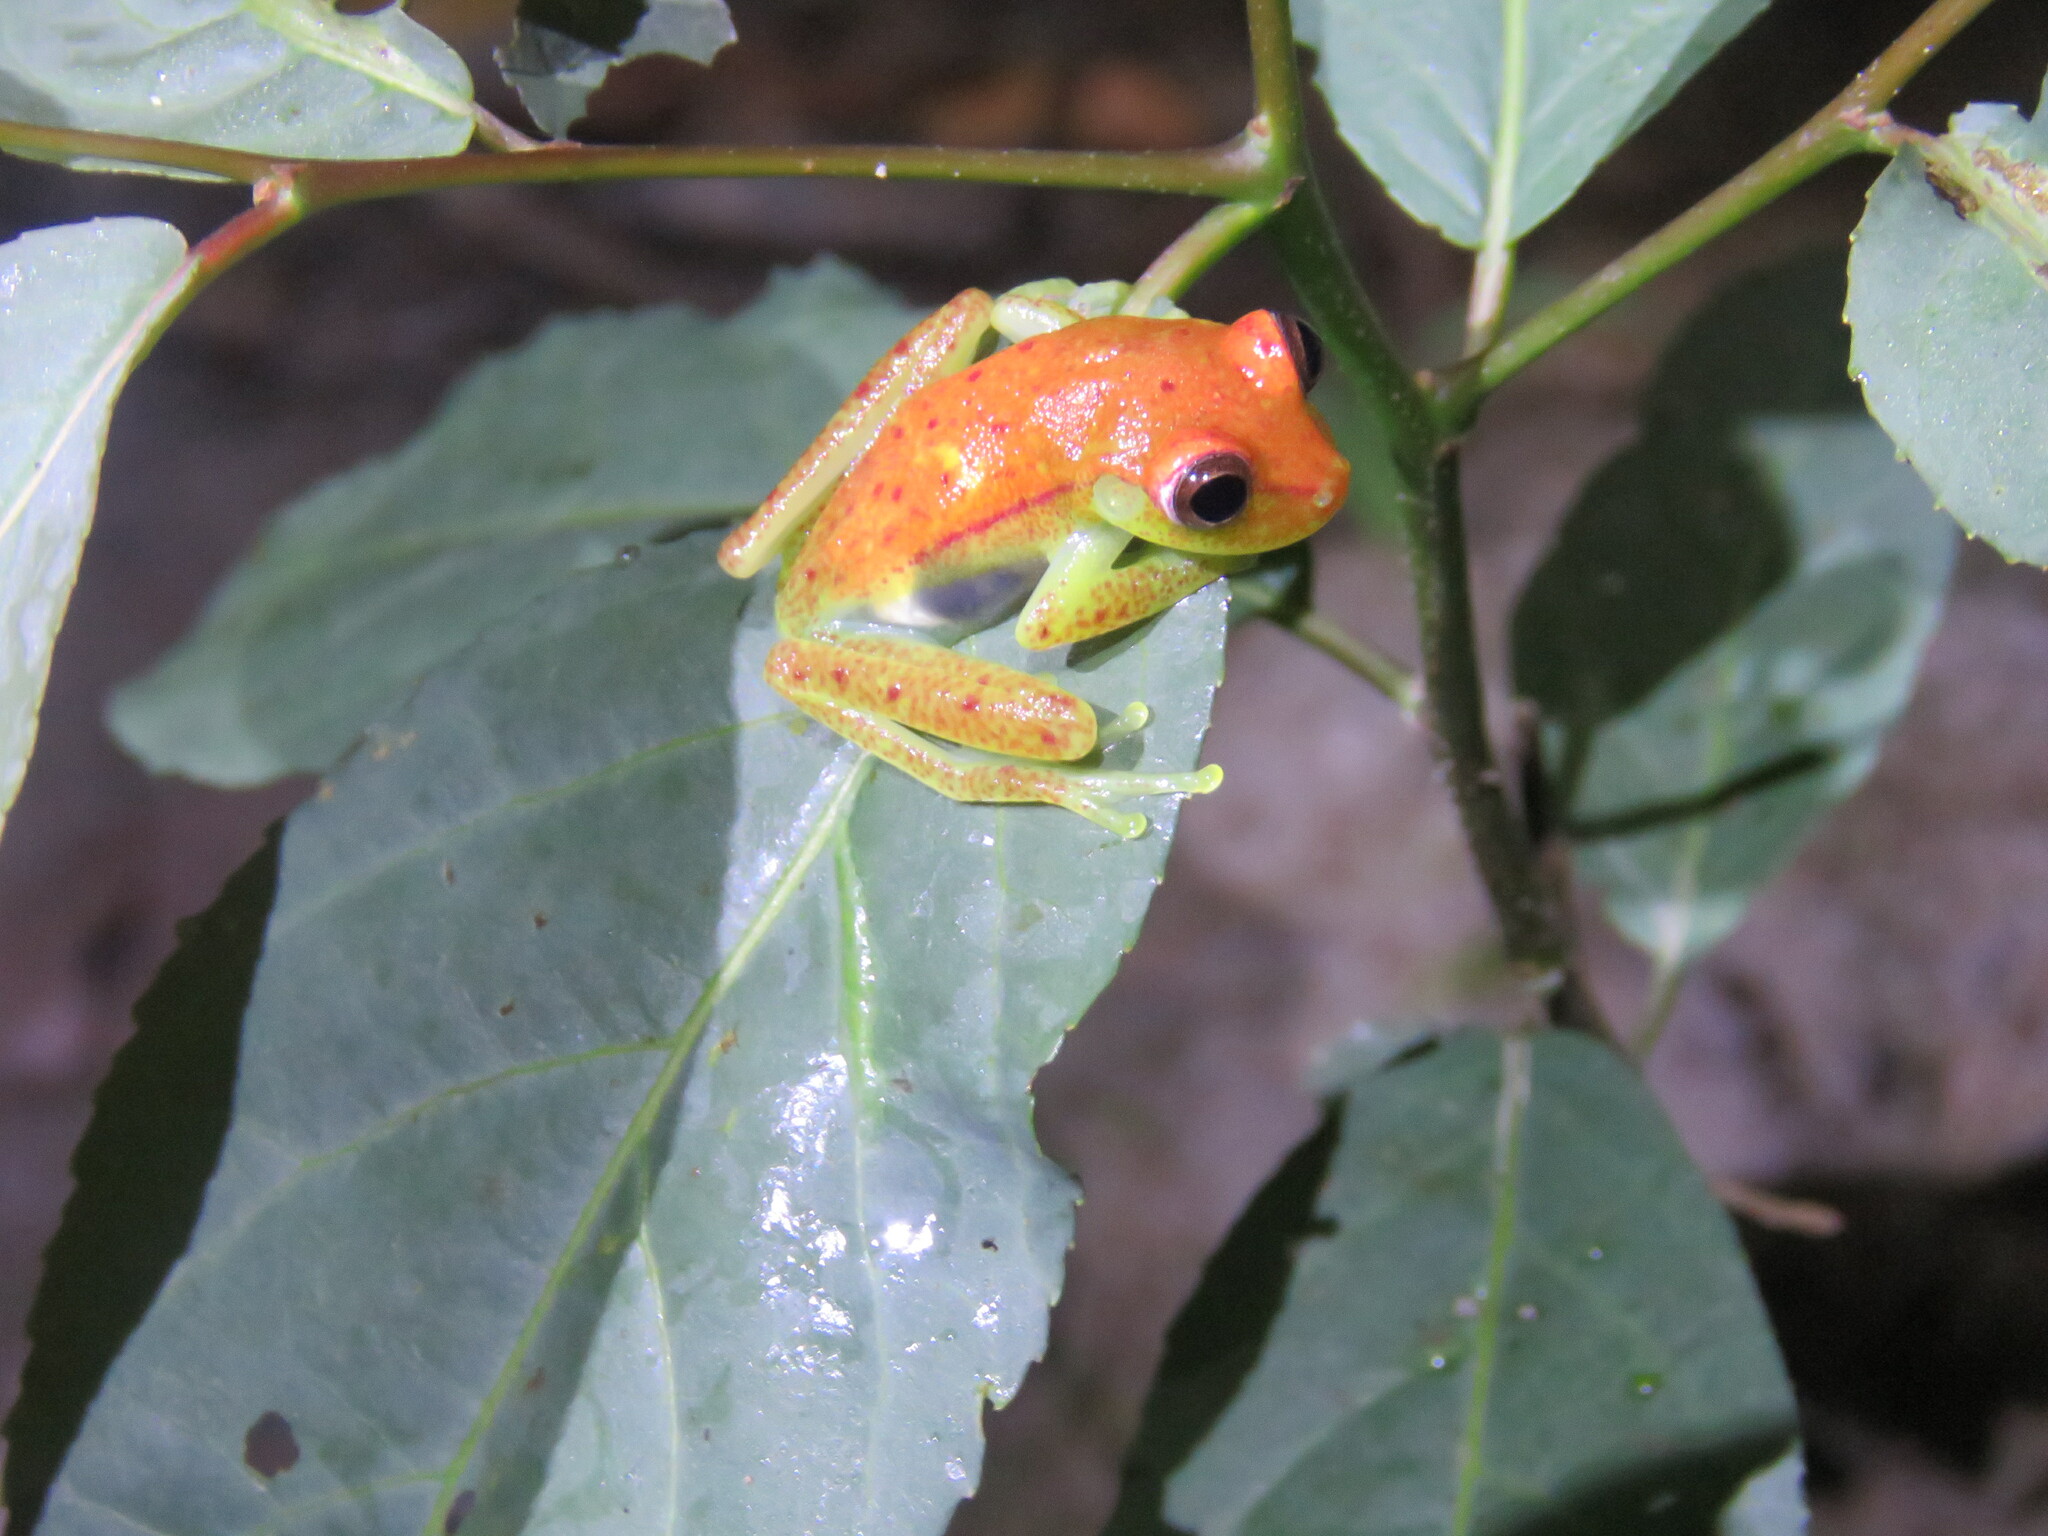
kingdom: Animalia
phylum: Chordata
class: Amphibia
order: Anura
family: Hylidae
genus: Boana
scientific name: Boana punctata
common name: Polka-dot treefrog
